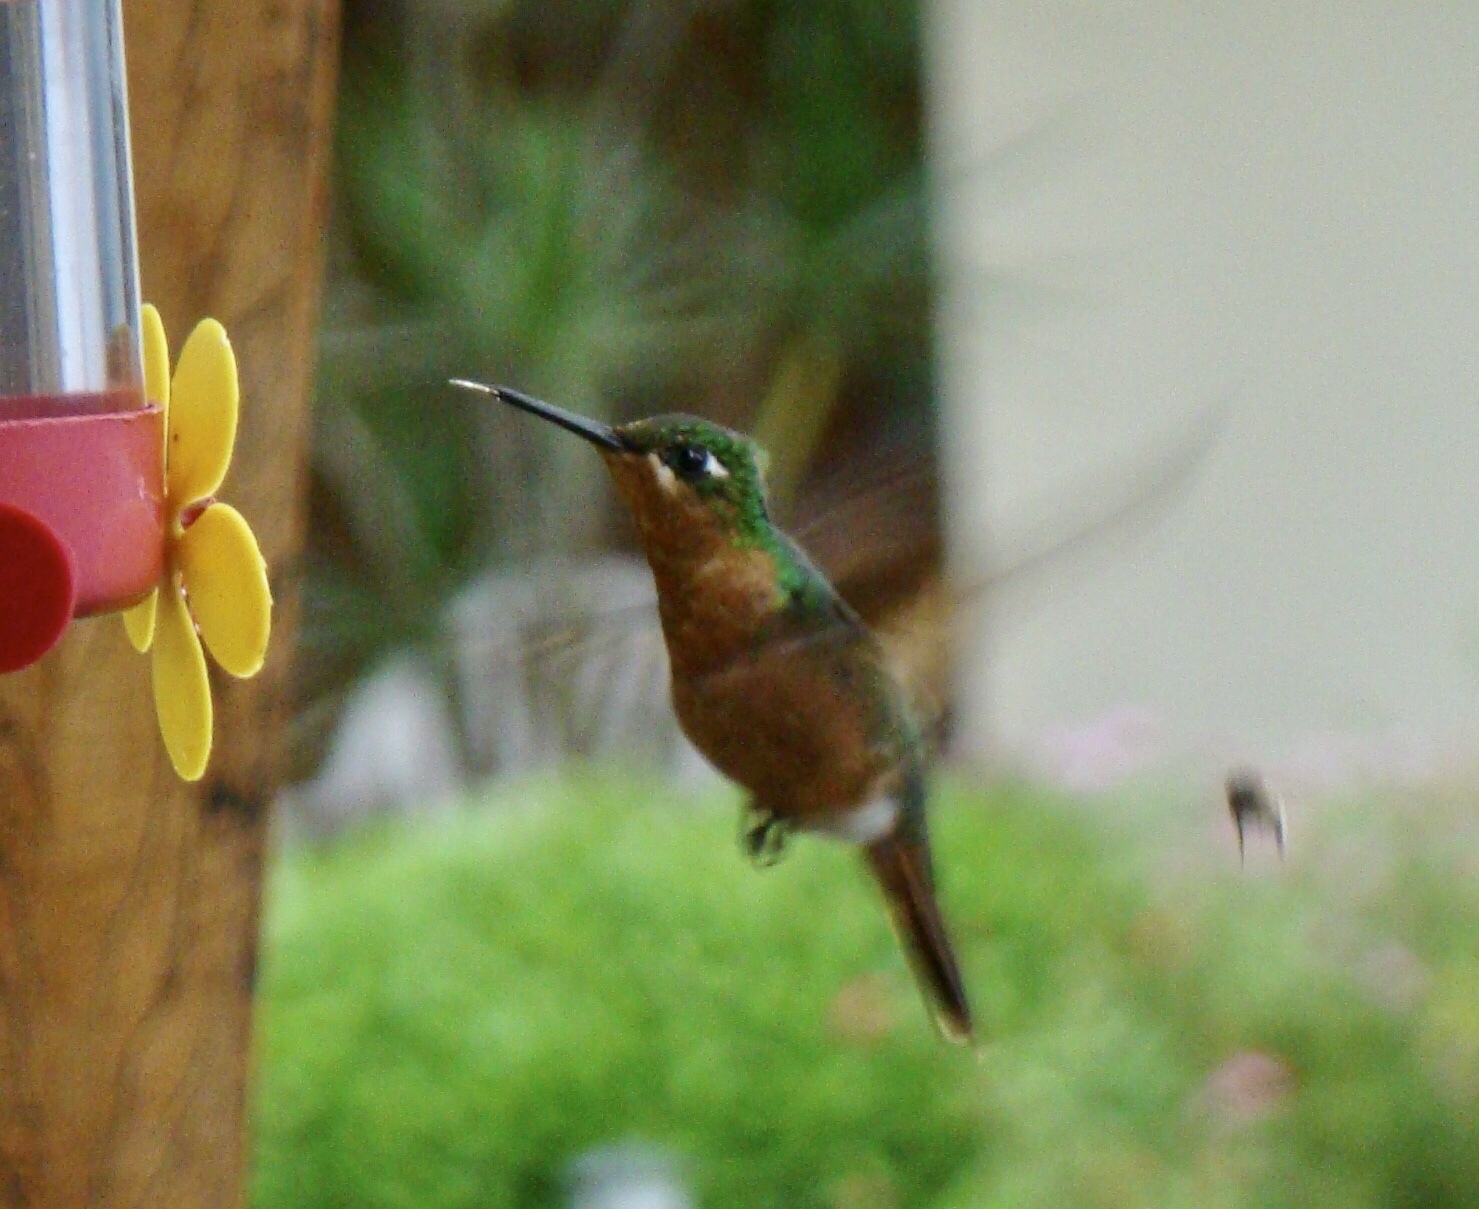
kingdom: Animalia
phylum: Chordata
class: Aves
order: Apodiformes
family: Trochilidae
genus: Clytolaema
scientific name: Clytolaema rubricauda
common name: Brazilian ruby
